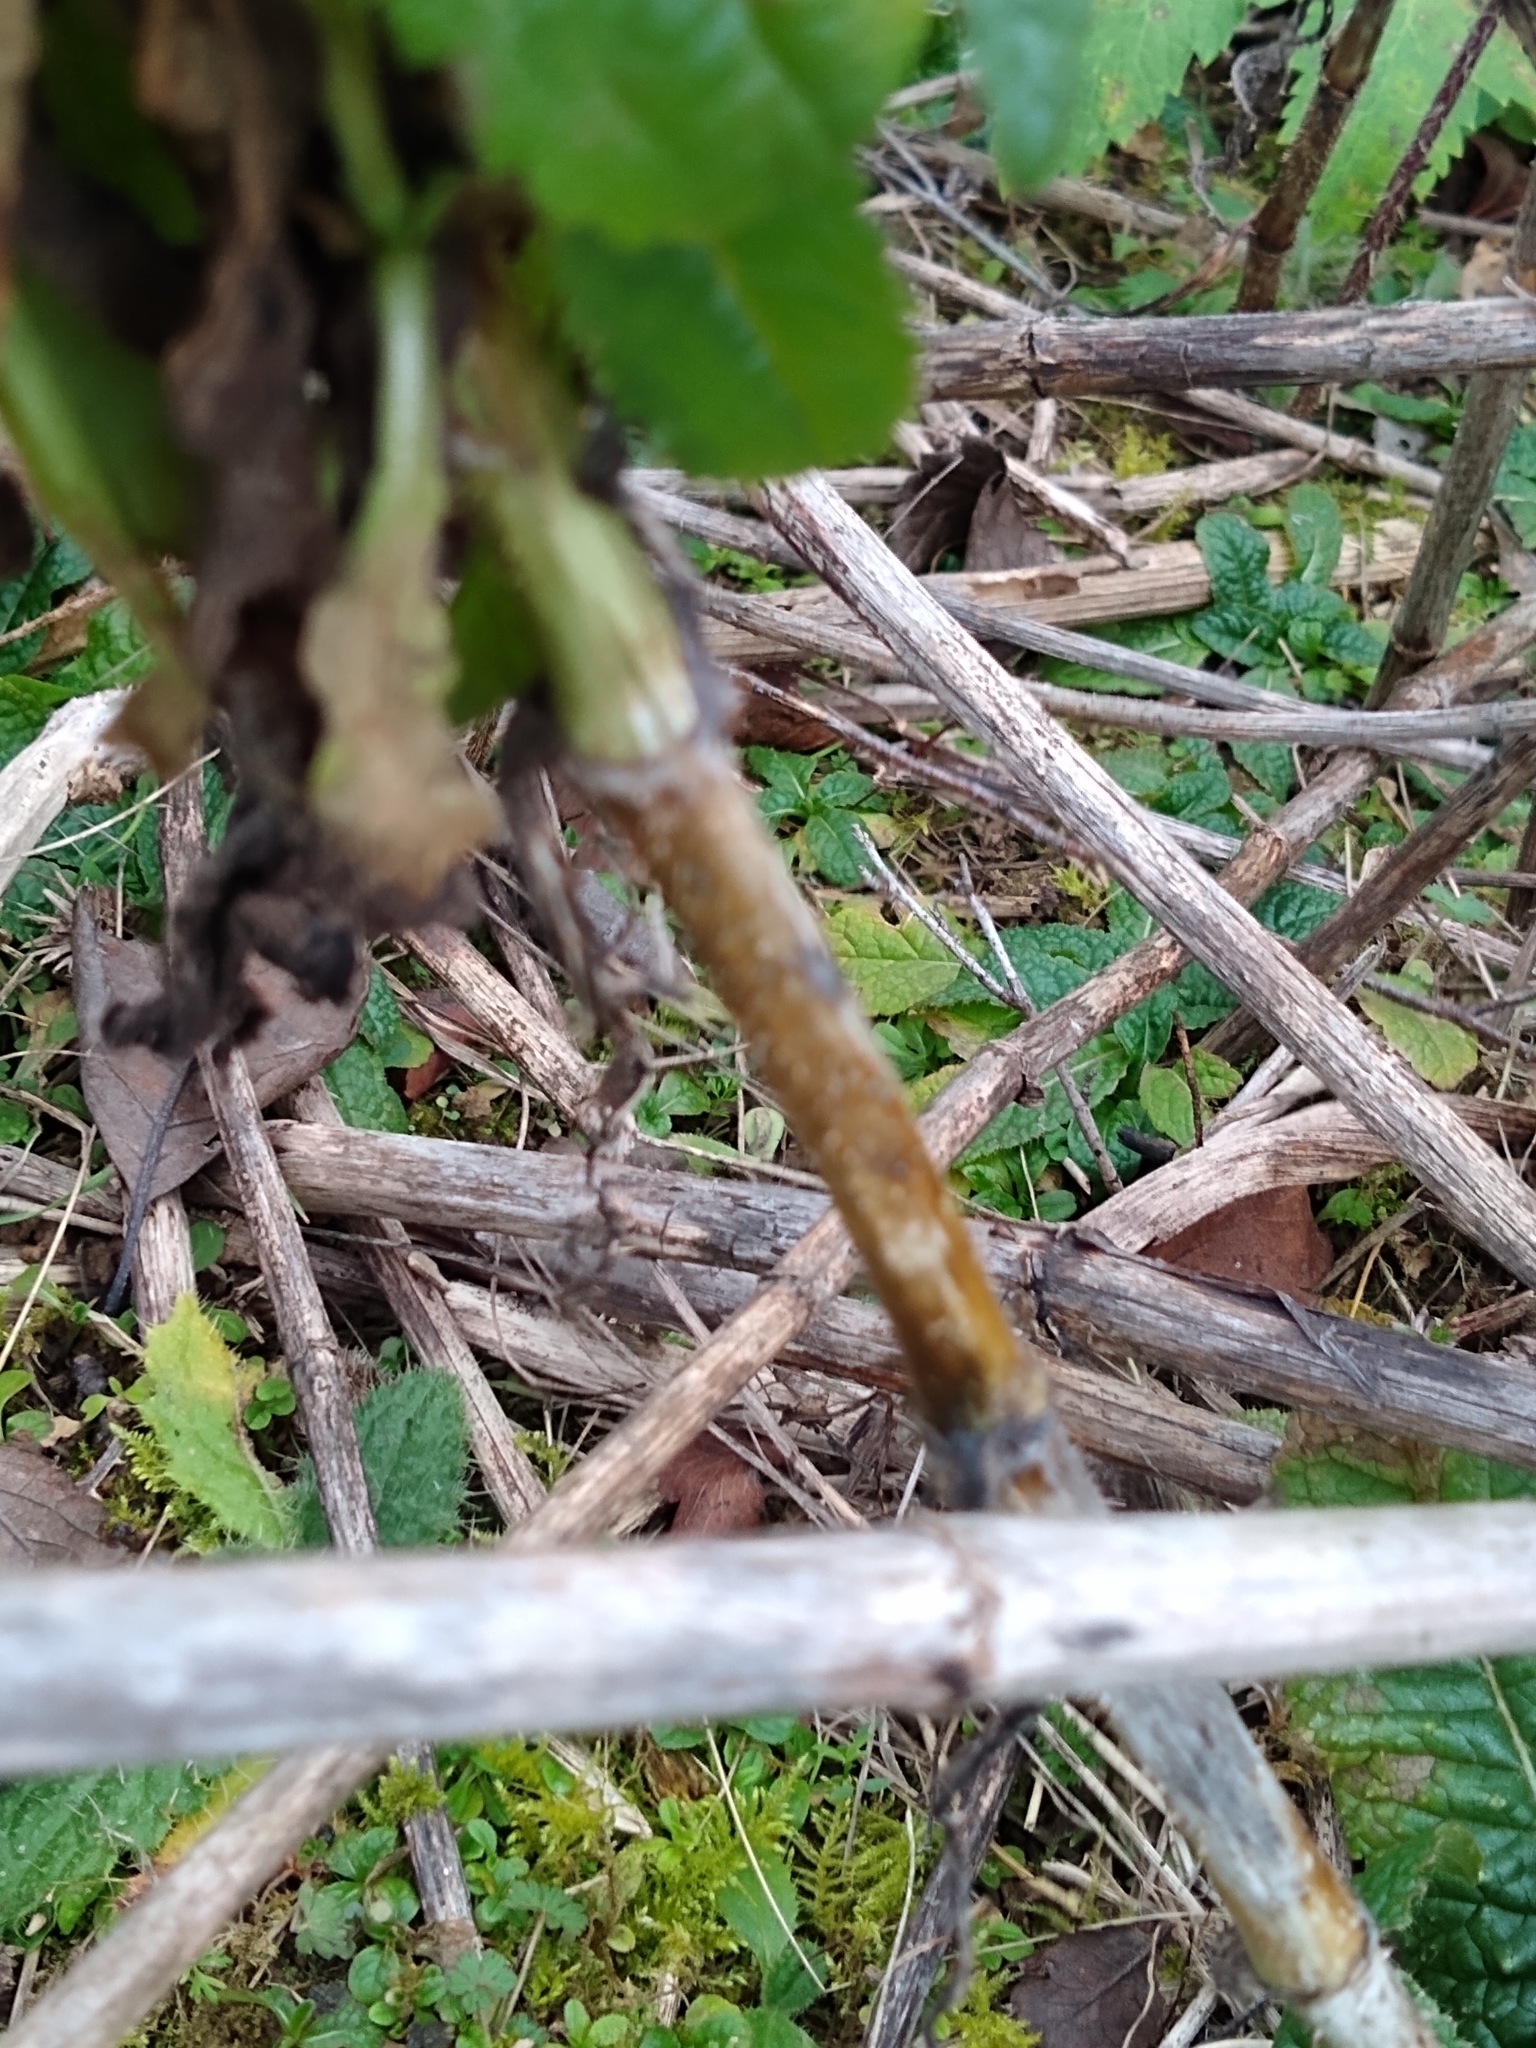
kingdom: Plantae
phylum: Tracheophyta
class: Magnoliopsida
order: Dipsacales
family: Caprifoliaceae
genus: Dipsacus
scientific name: Dipsacus fullonum
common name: Teasel
